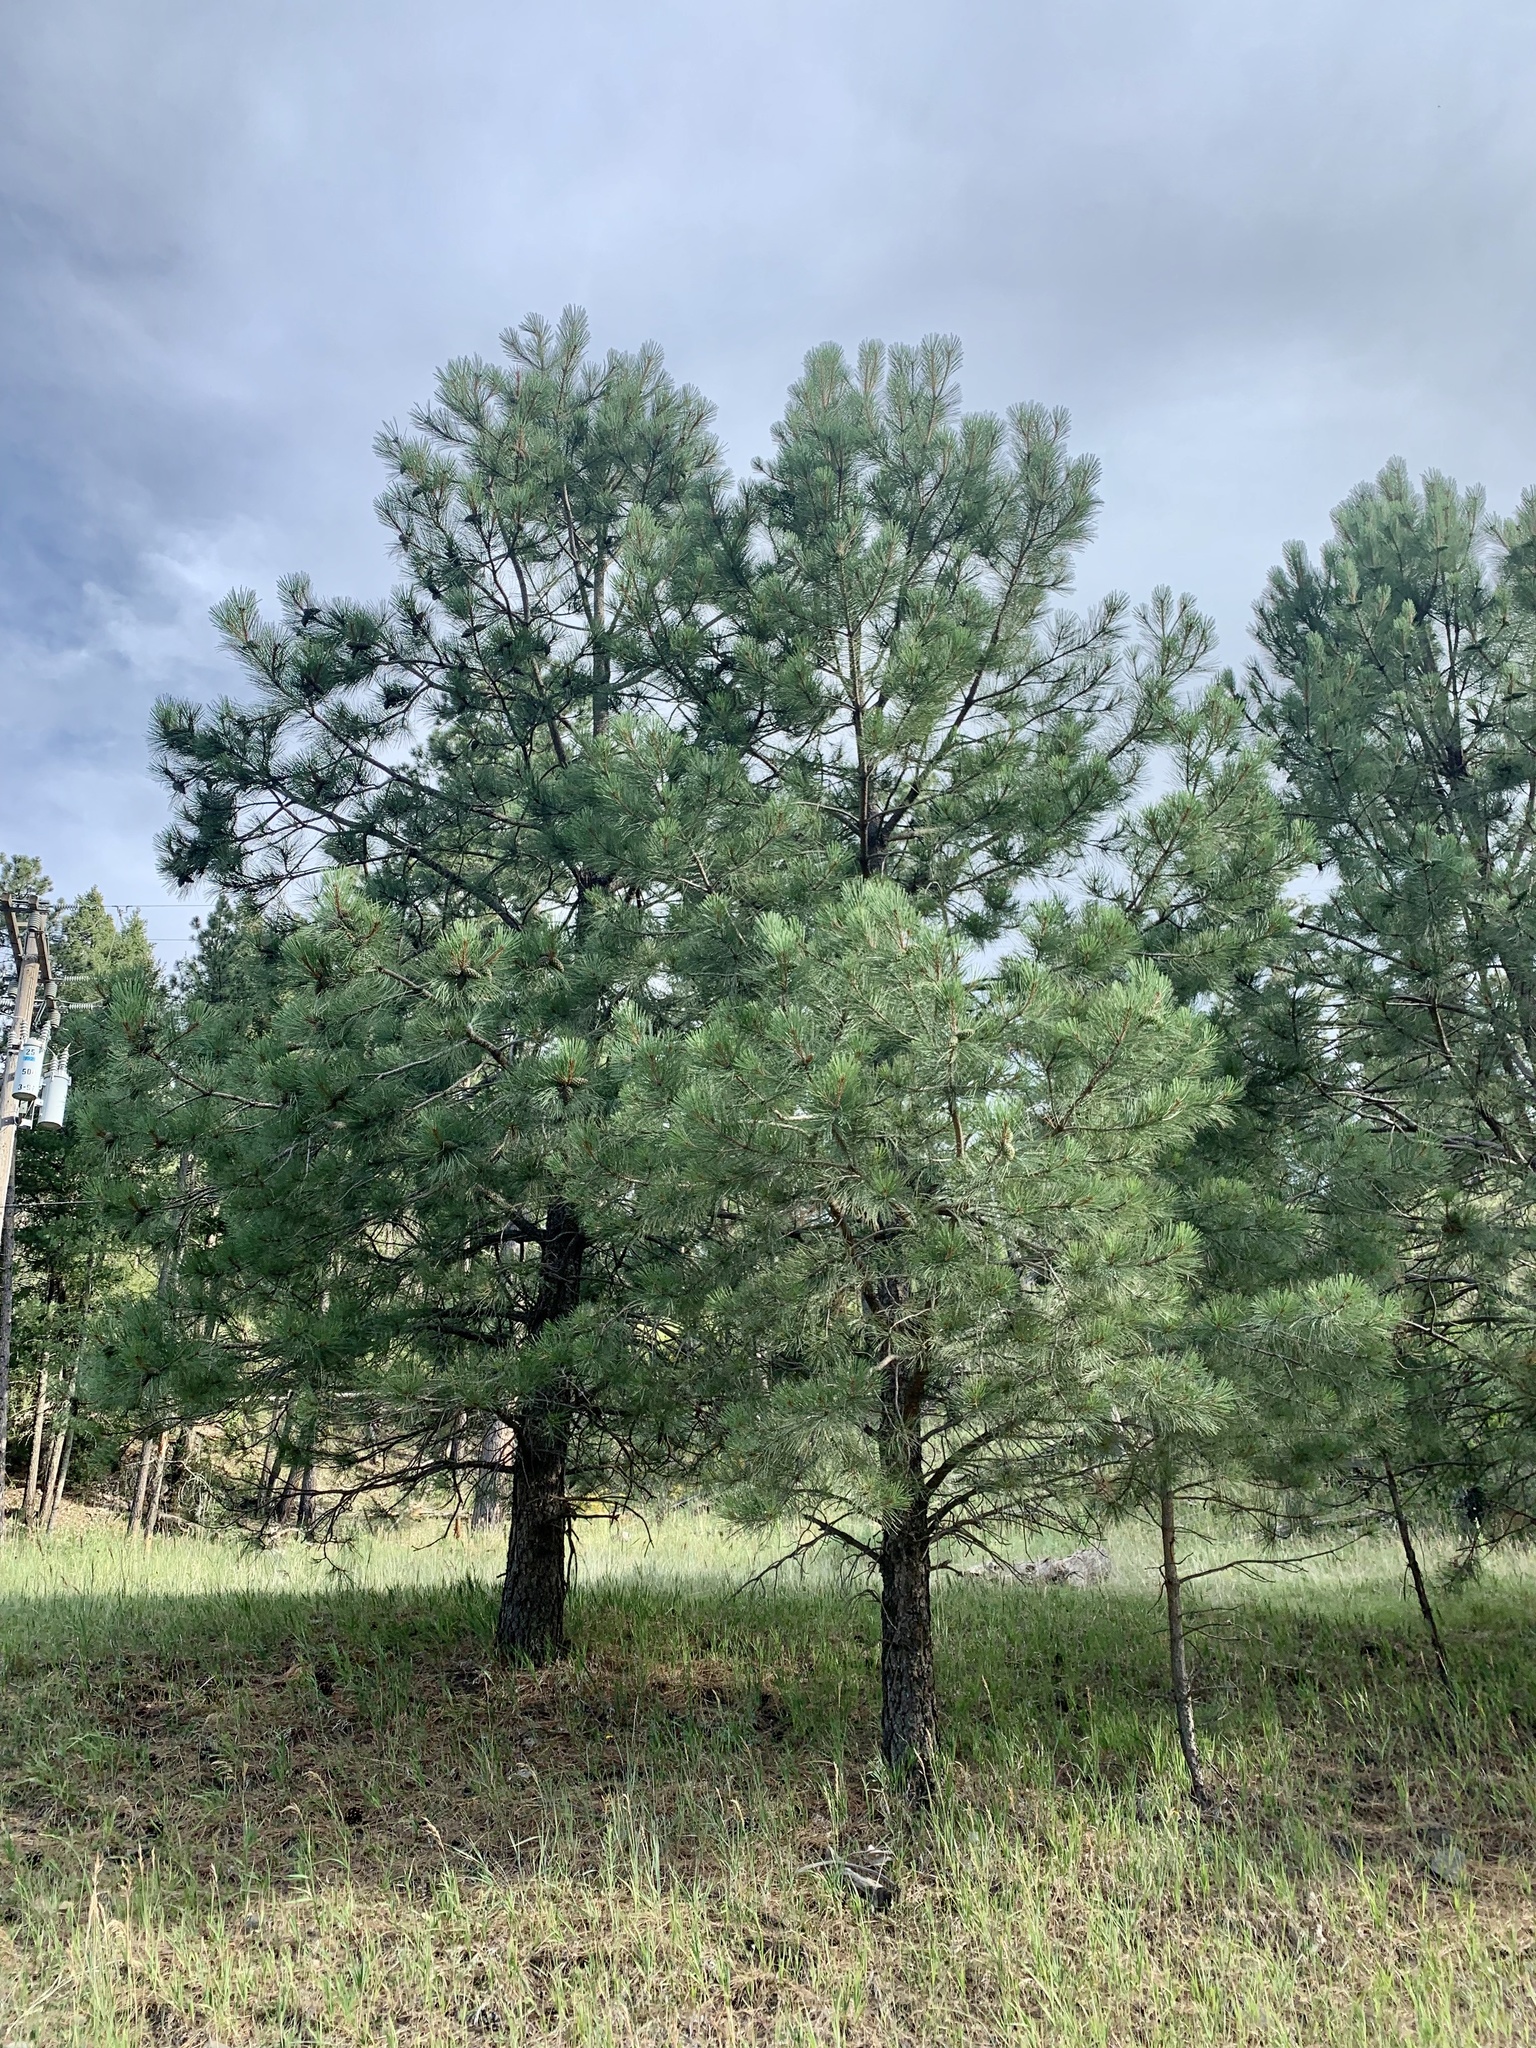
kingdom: Plantae
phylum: Tracheophyta
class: Pinopsida
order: Pinales
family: Pinaceae
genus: Pinus
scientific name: Pinus ponderosa
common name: Western yellow-pine
